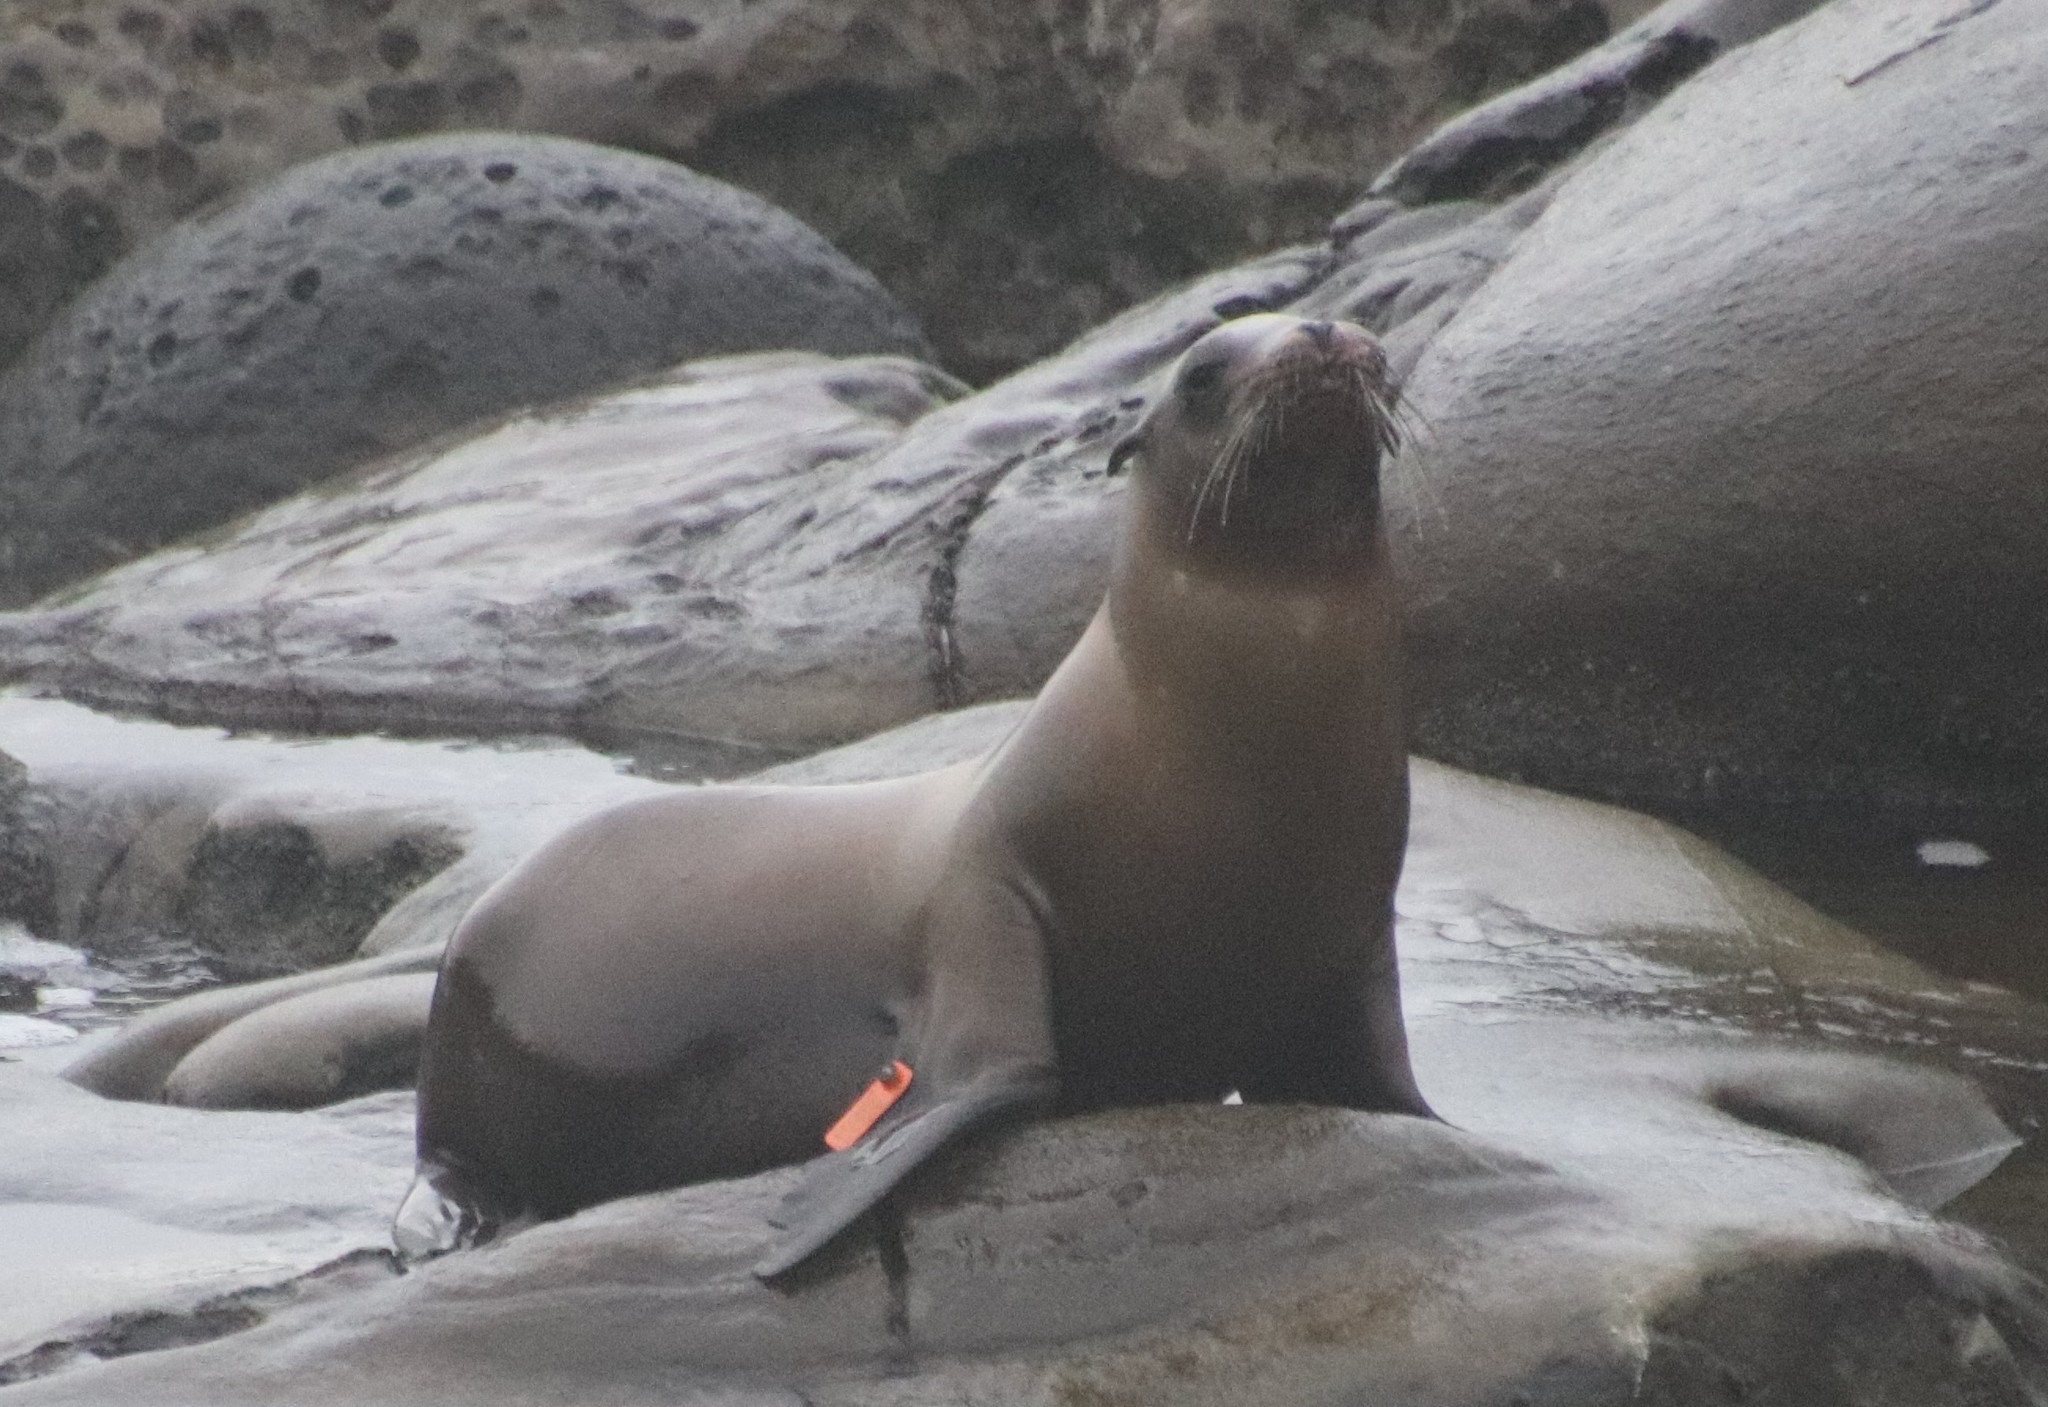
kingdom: Animalia
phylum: Chordata
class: Mammalia
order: Carnivora
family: Otariidae
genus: Zalophus
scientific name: Zalophus californianus
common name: California sea lion
